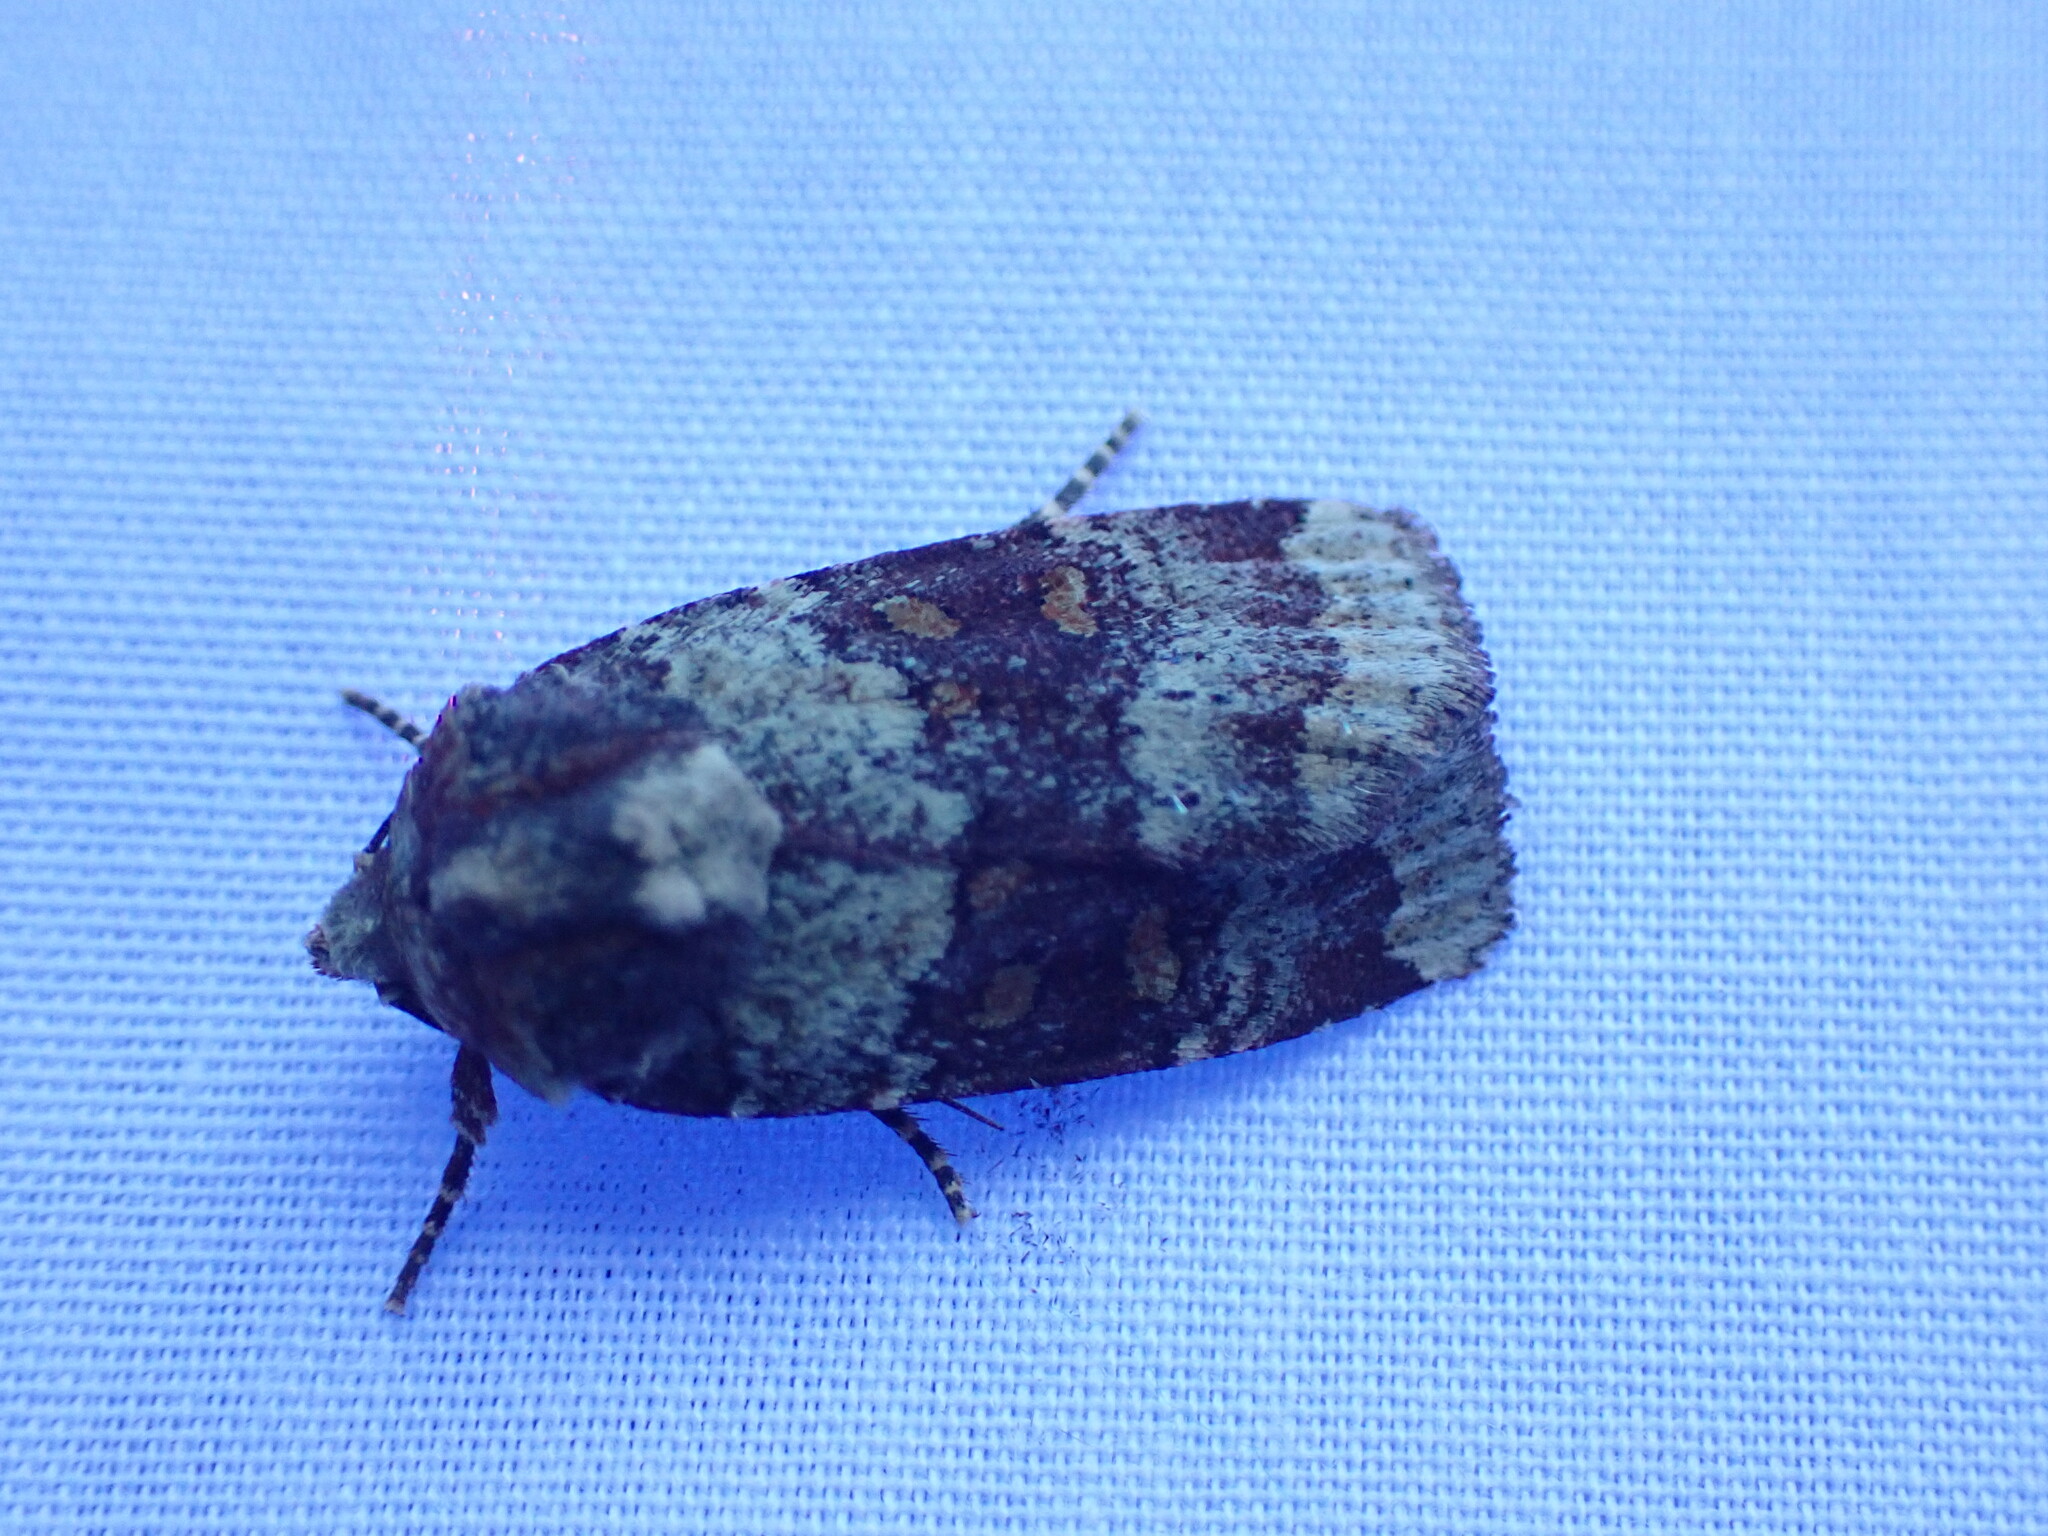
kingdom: Animalia
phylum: Arthropoda
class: Insecta
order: Lepidoptera
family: Noctuidae
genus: Abagrotis
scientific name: Abagrotis pulchrata
